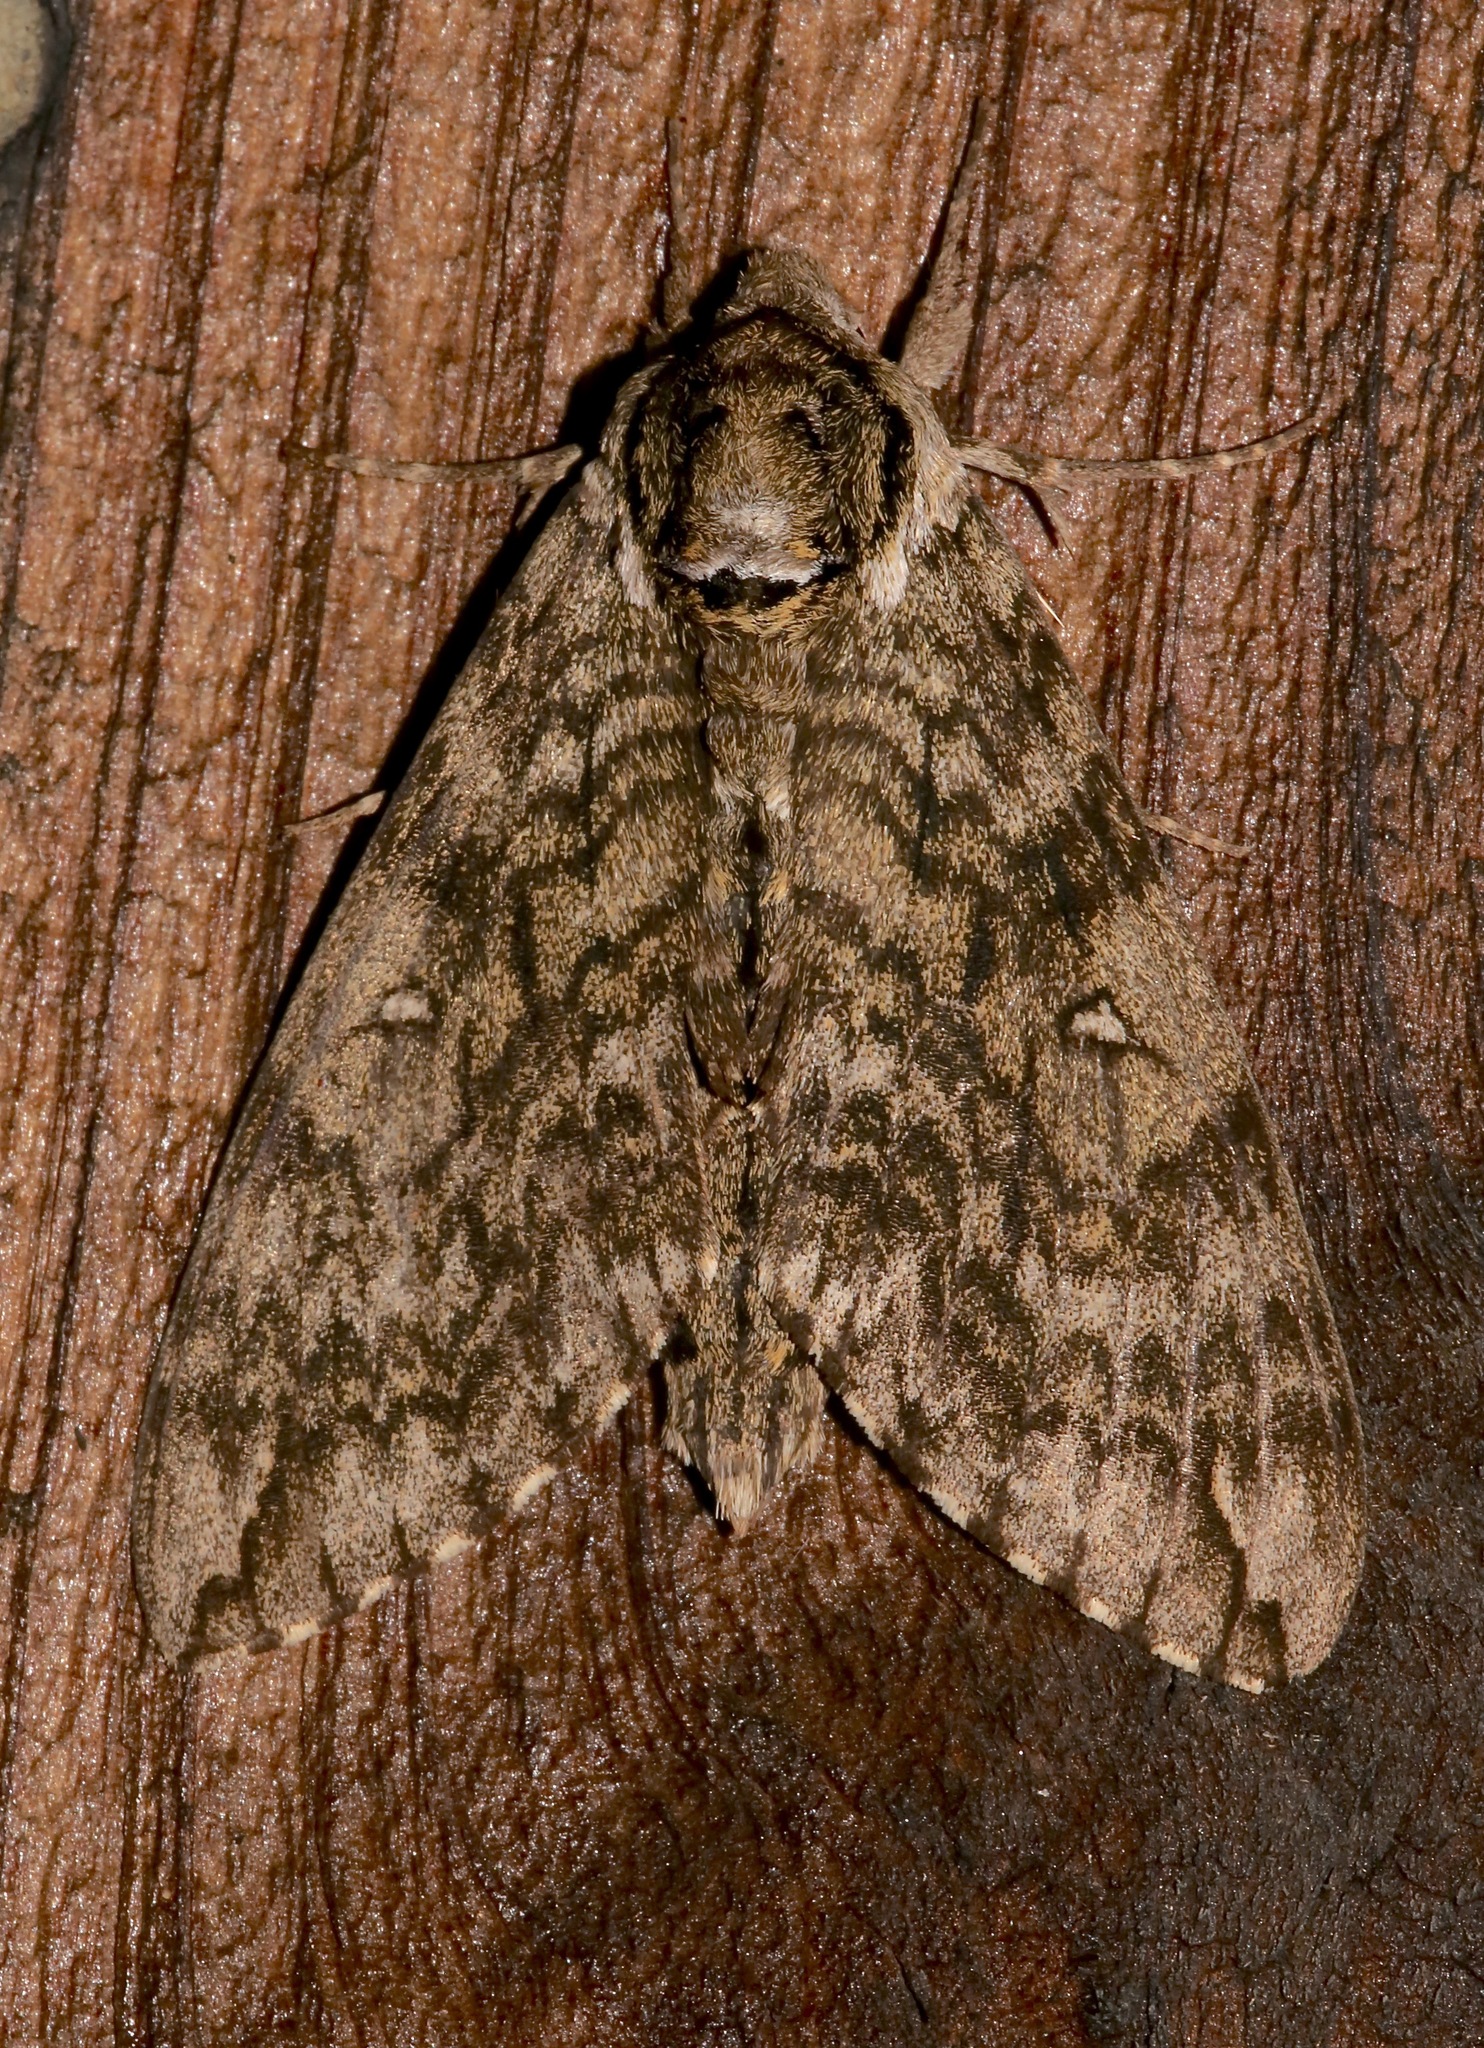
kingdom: Animalia
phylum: Arthropoda
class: Insecta
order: Lepidoptera
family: Sphingidae
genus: Ceratomia
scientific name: Ceratomia undulosa
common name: Waved sphinx
